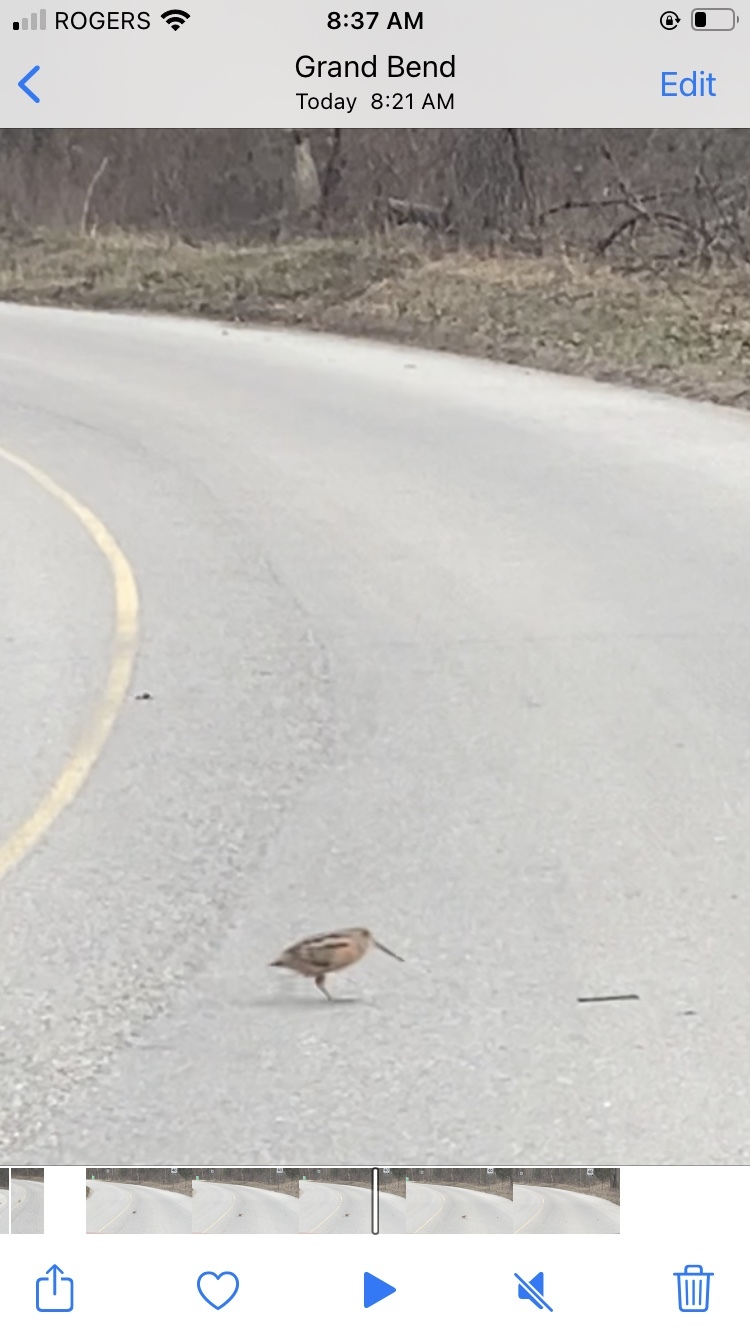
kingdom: Animalia
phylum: Chordata
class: Aves
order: Charadriiformes
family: Scolopacidae
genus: Scolopax
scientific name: Scolopax minor
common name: American woodcock
